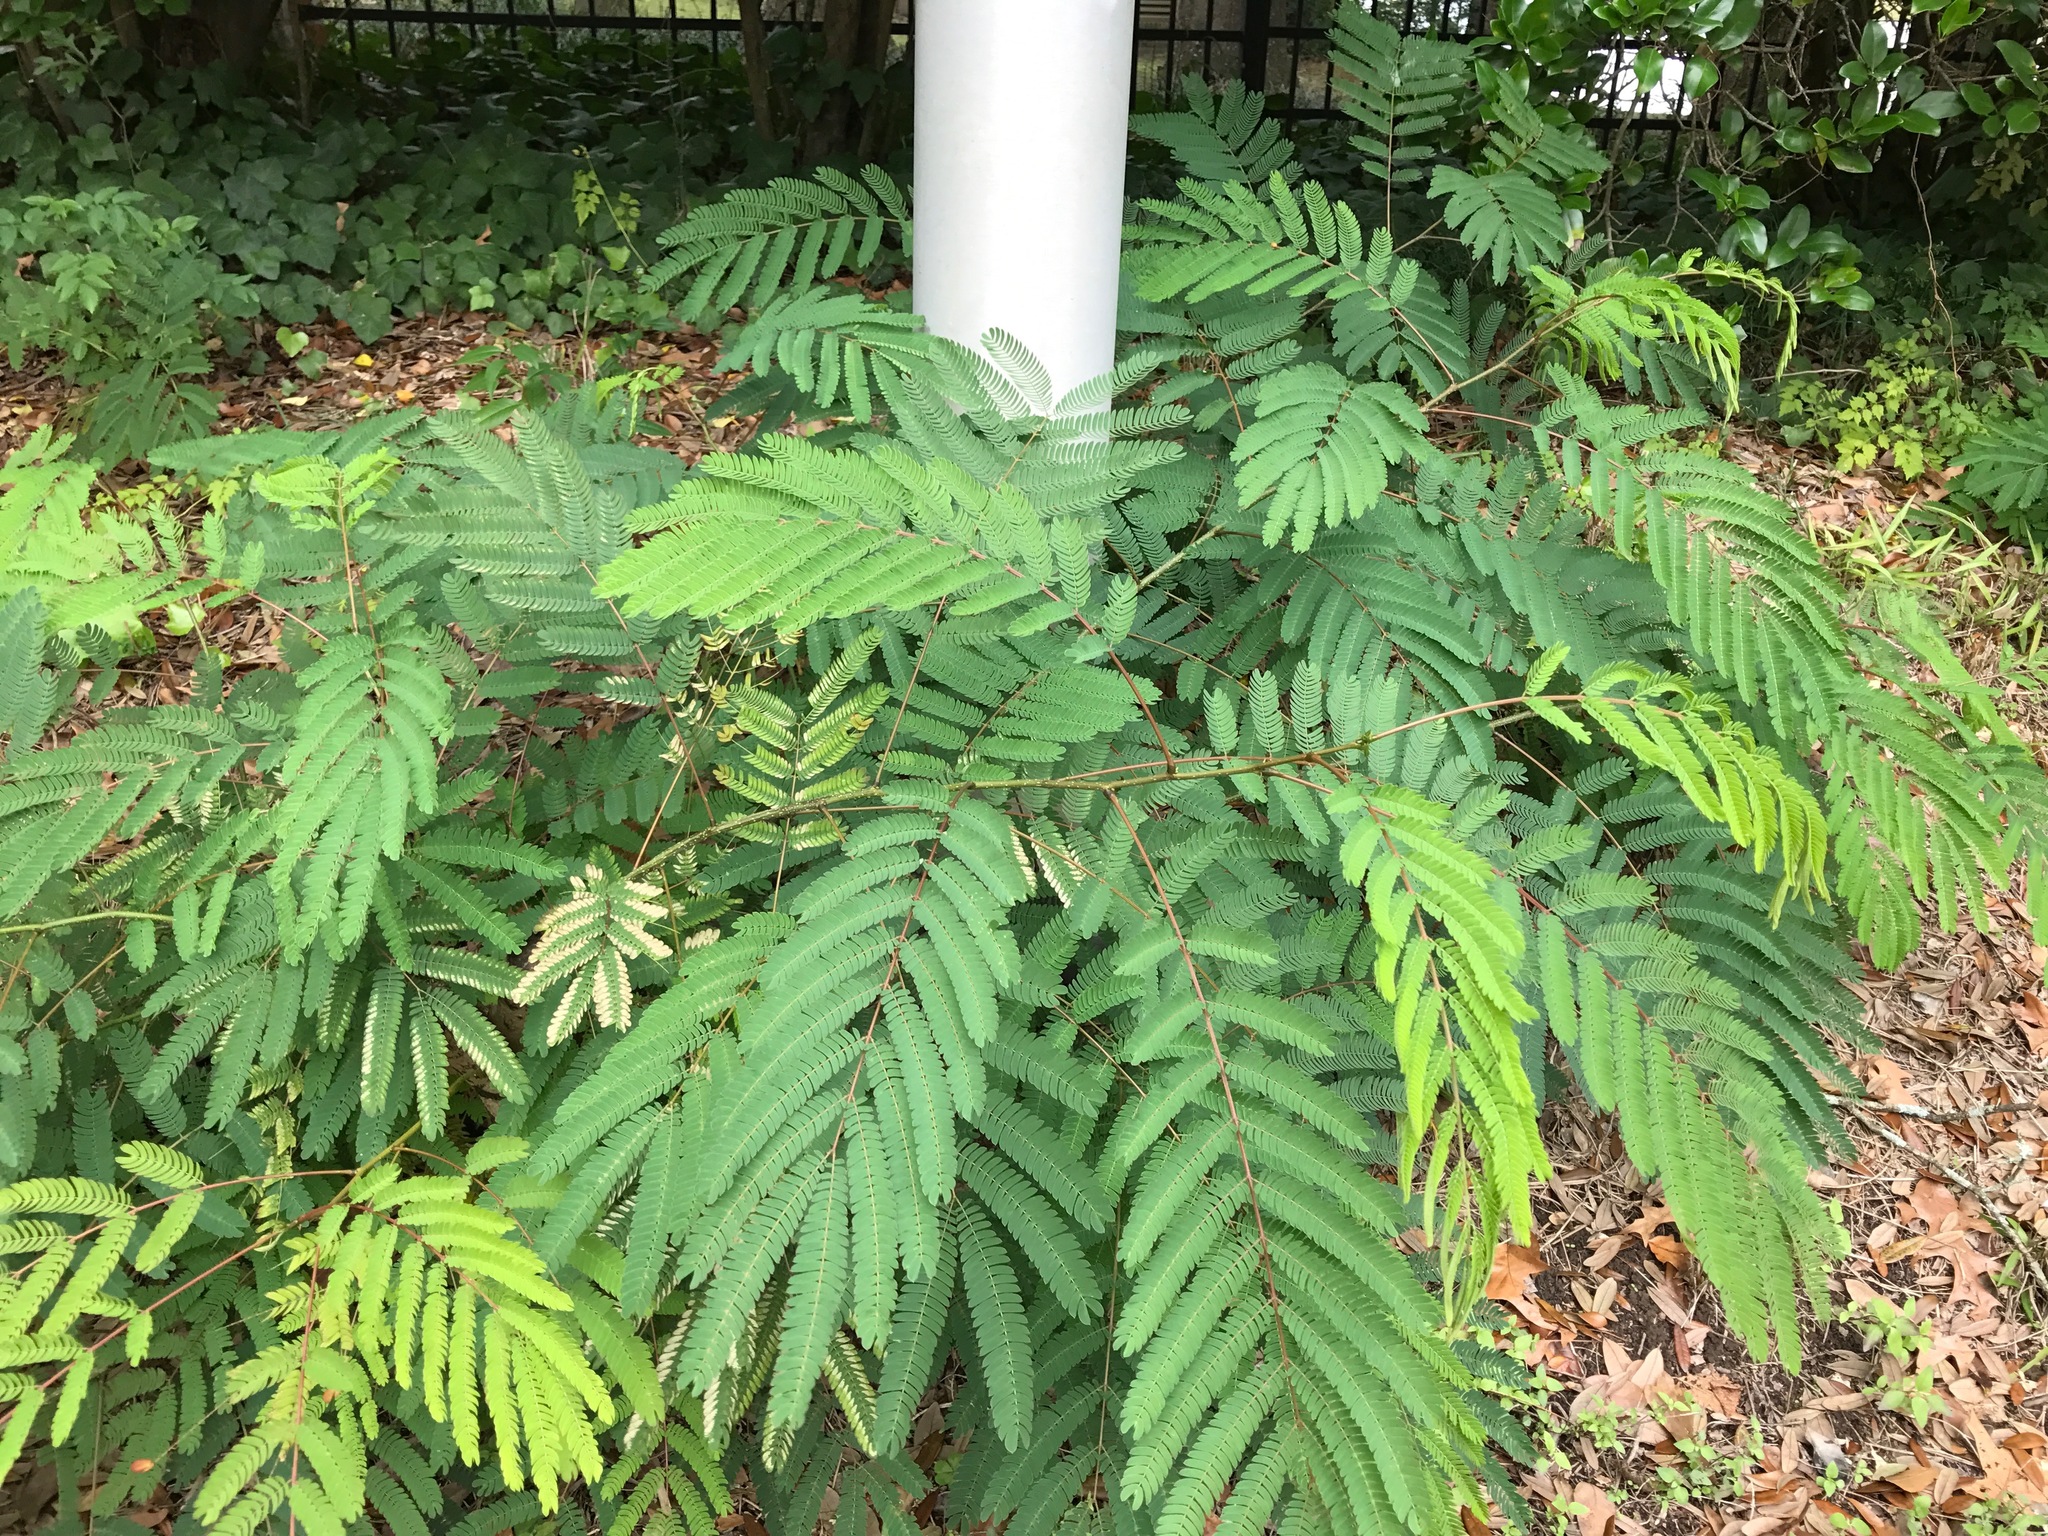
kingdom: Plantae
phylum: Tracheophyta
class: Magnoliopsida
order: Fabales
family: Fabaceae
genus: Albizia
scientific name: Albizia julibrissin
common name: Silktree
